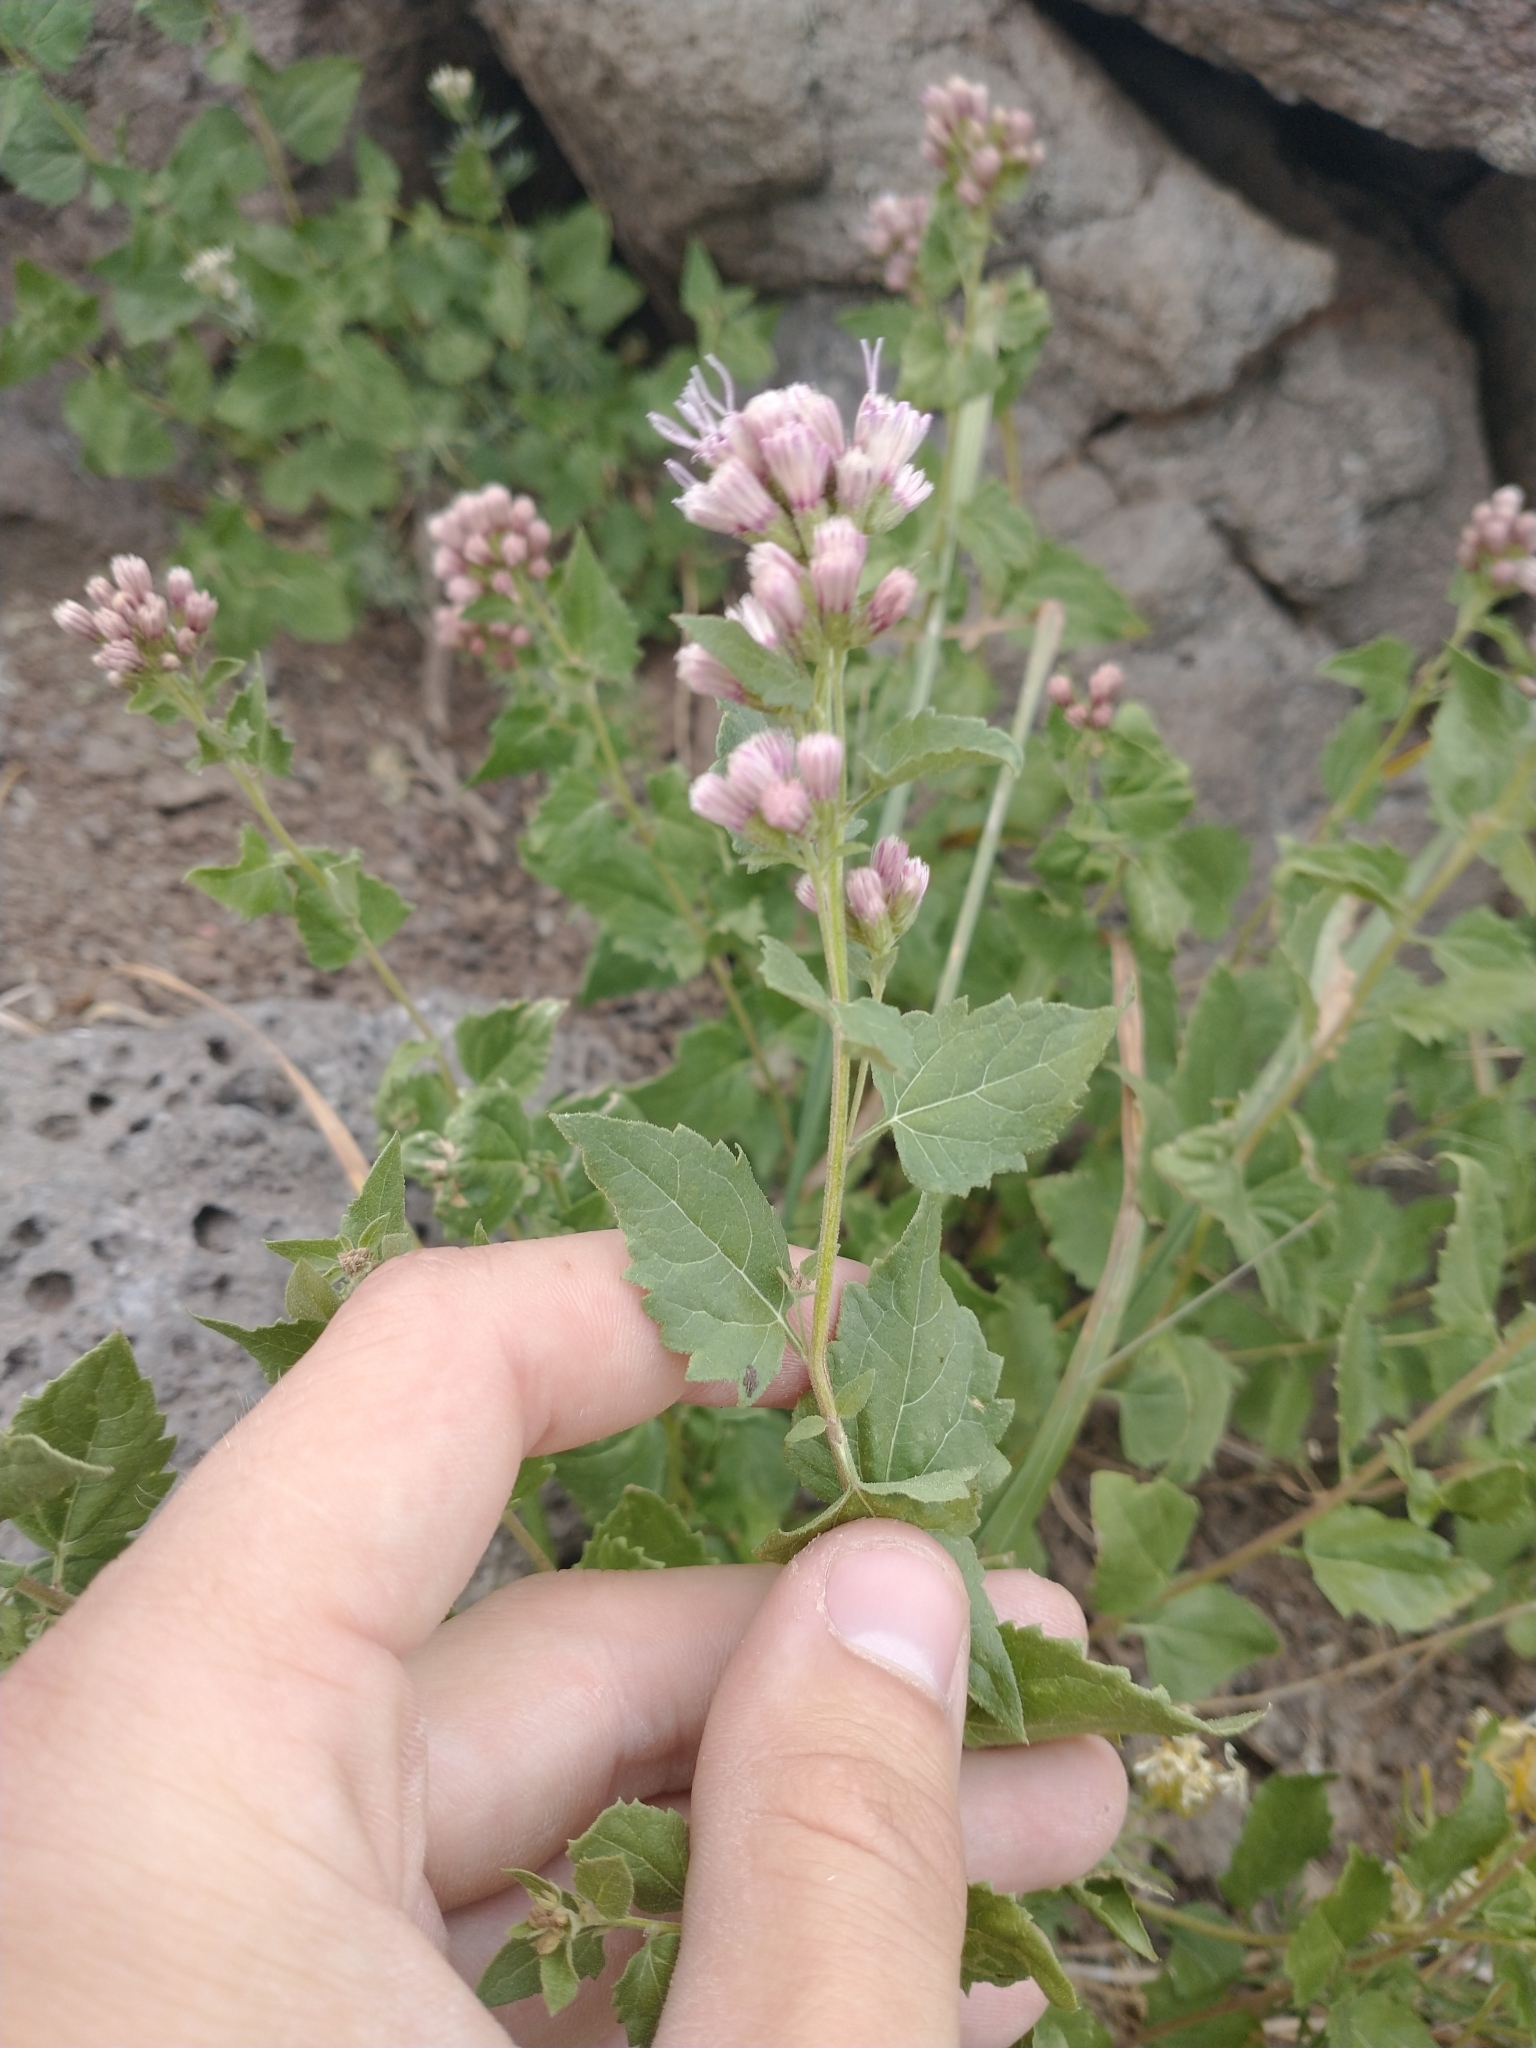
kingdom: Plantae
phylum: Tracheophyta
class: Magnoliopsida
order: Asterales
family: Asteraceae
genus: Ageratina
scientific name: Ageratina occidentalis
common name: Western snakeroot
